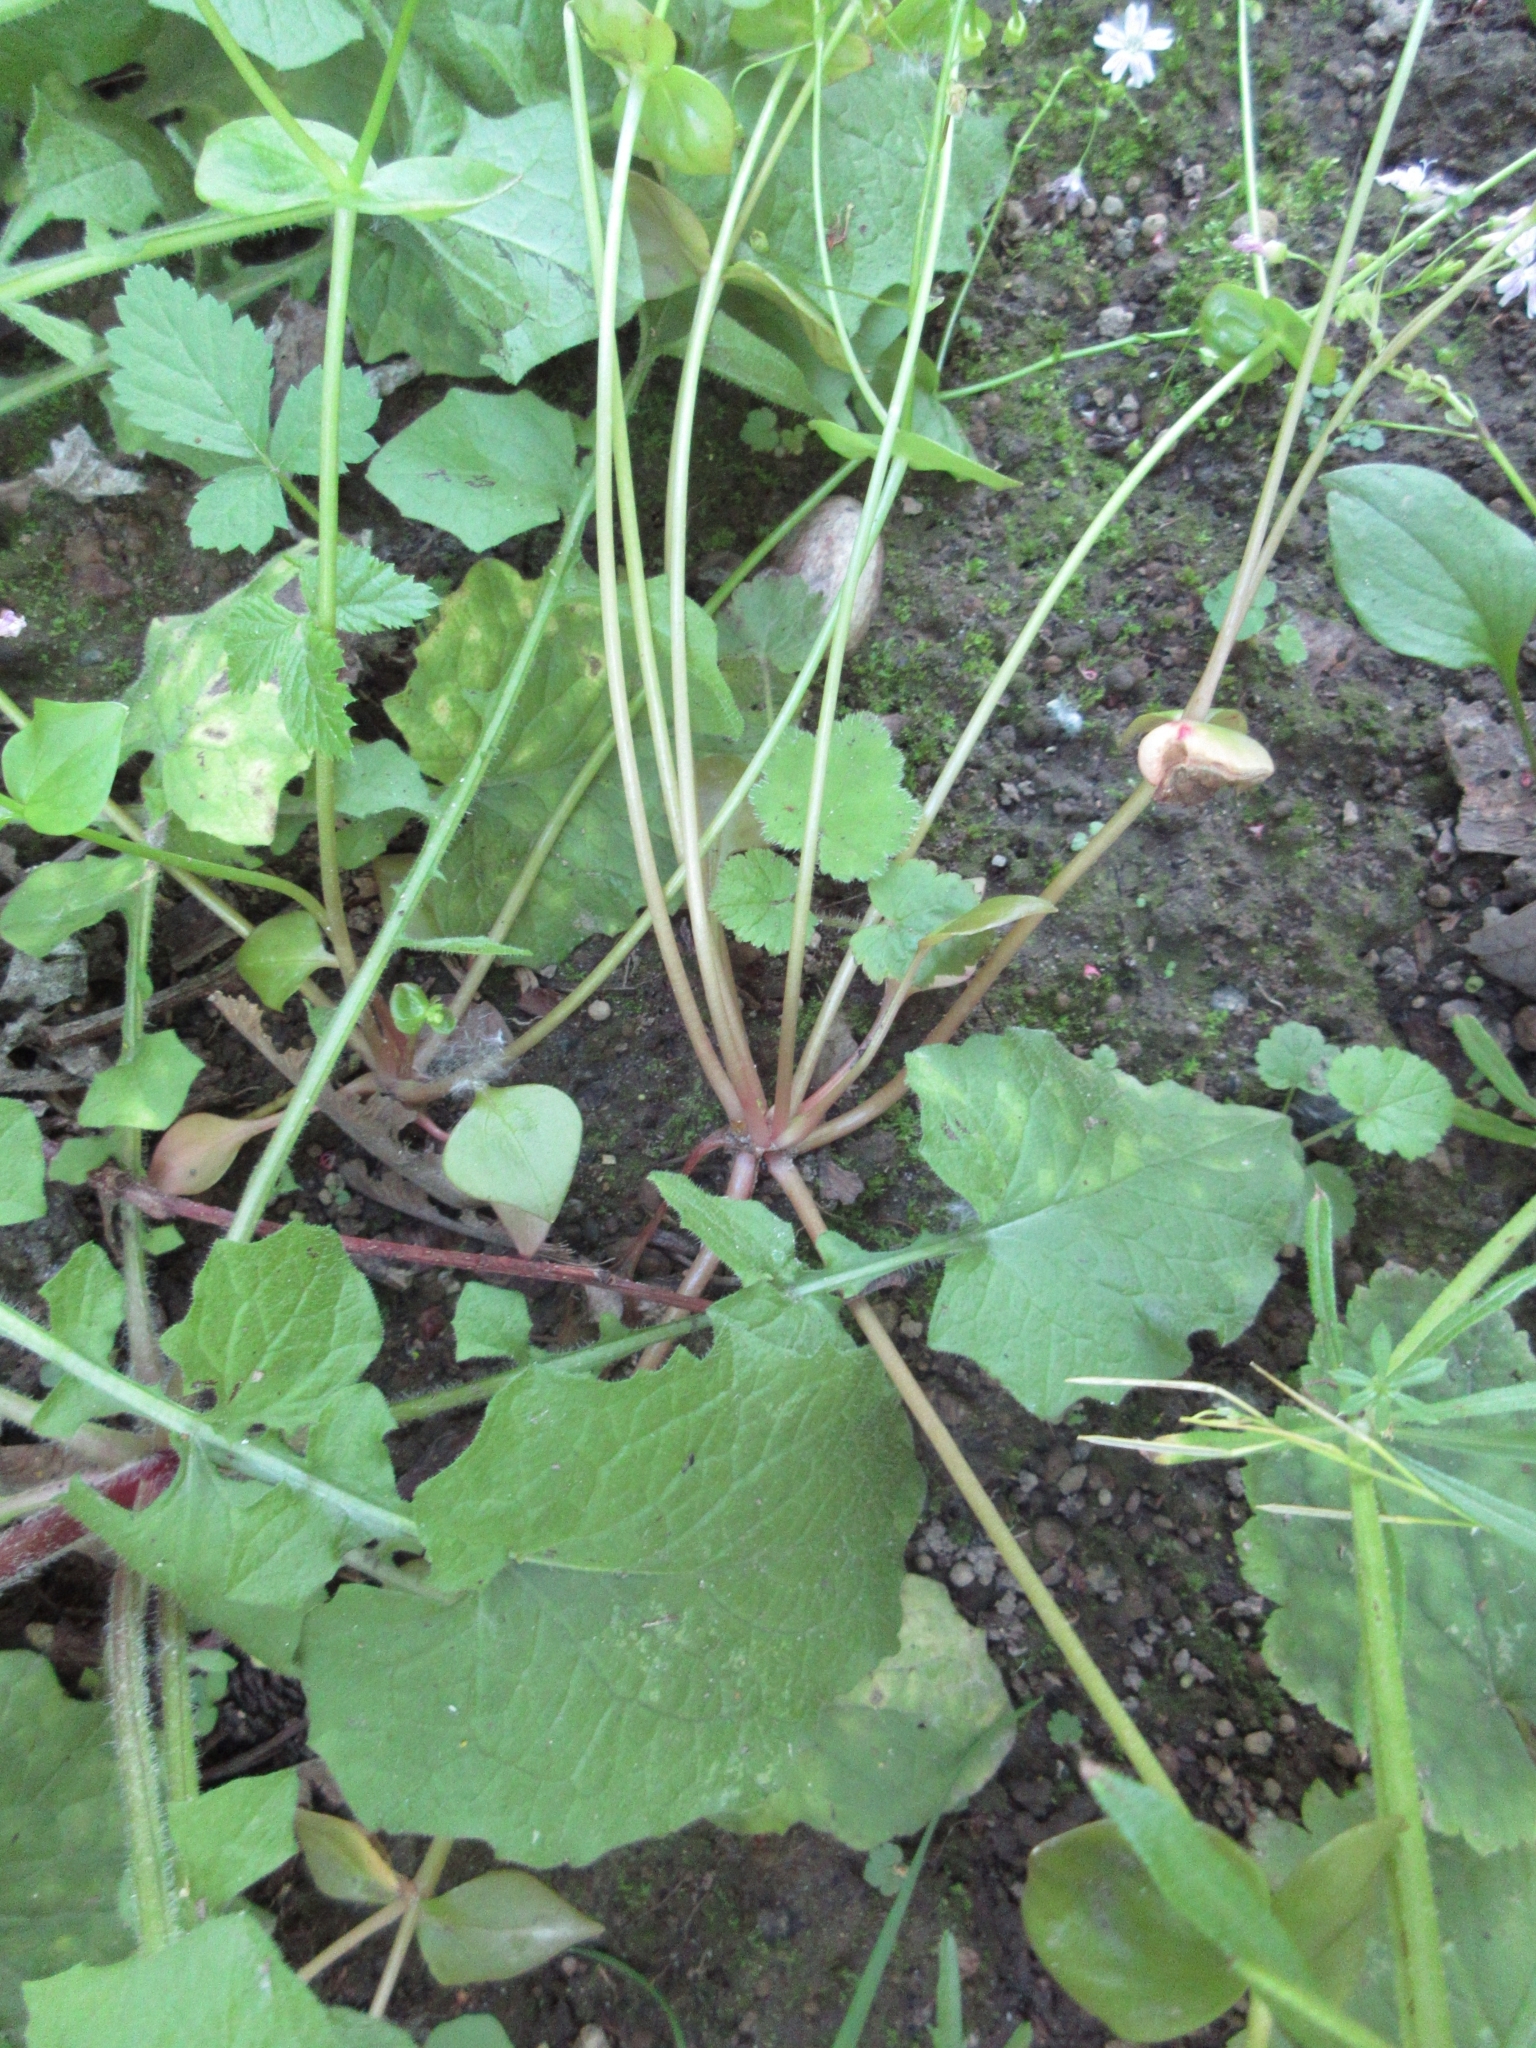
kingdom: Plantae
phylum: Tracheophyta
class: Magnoliopsida
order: Caryophyllales
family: Montiaceae
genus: Claytonia
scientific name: Claytonia sibirica
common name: Pink purslane
